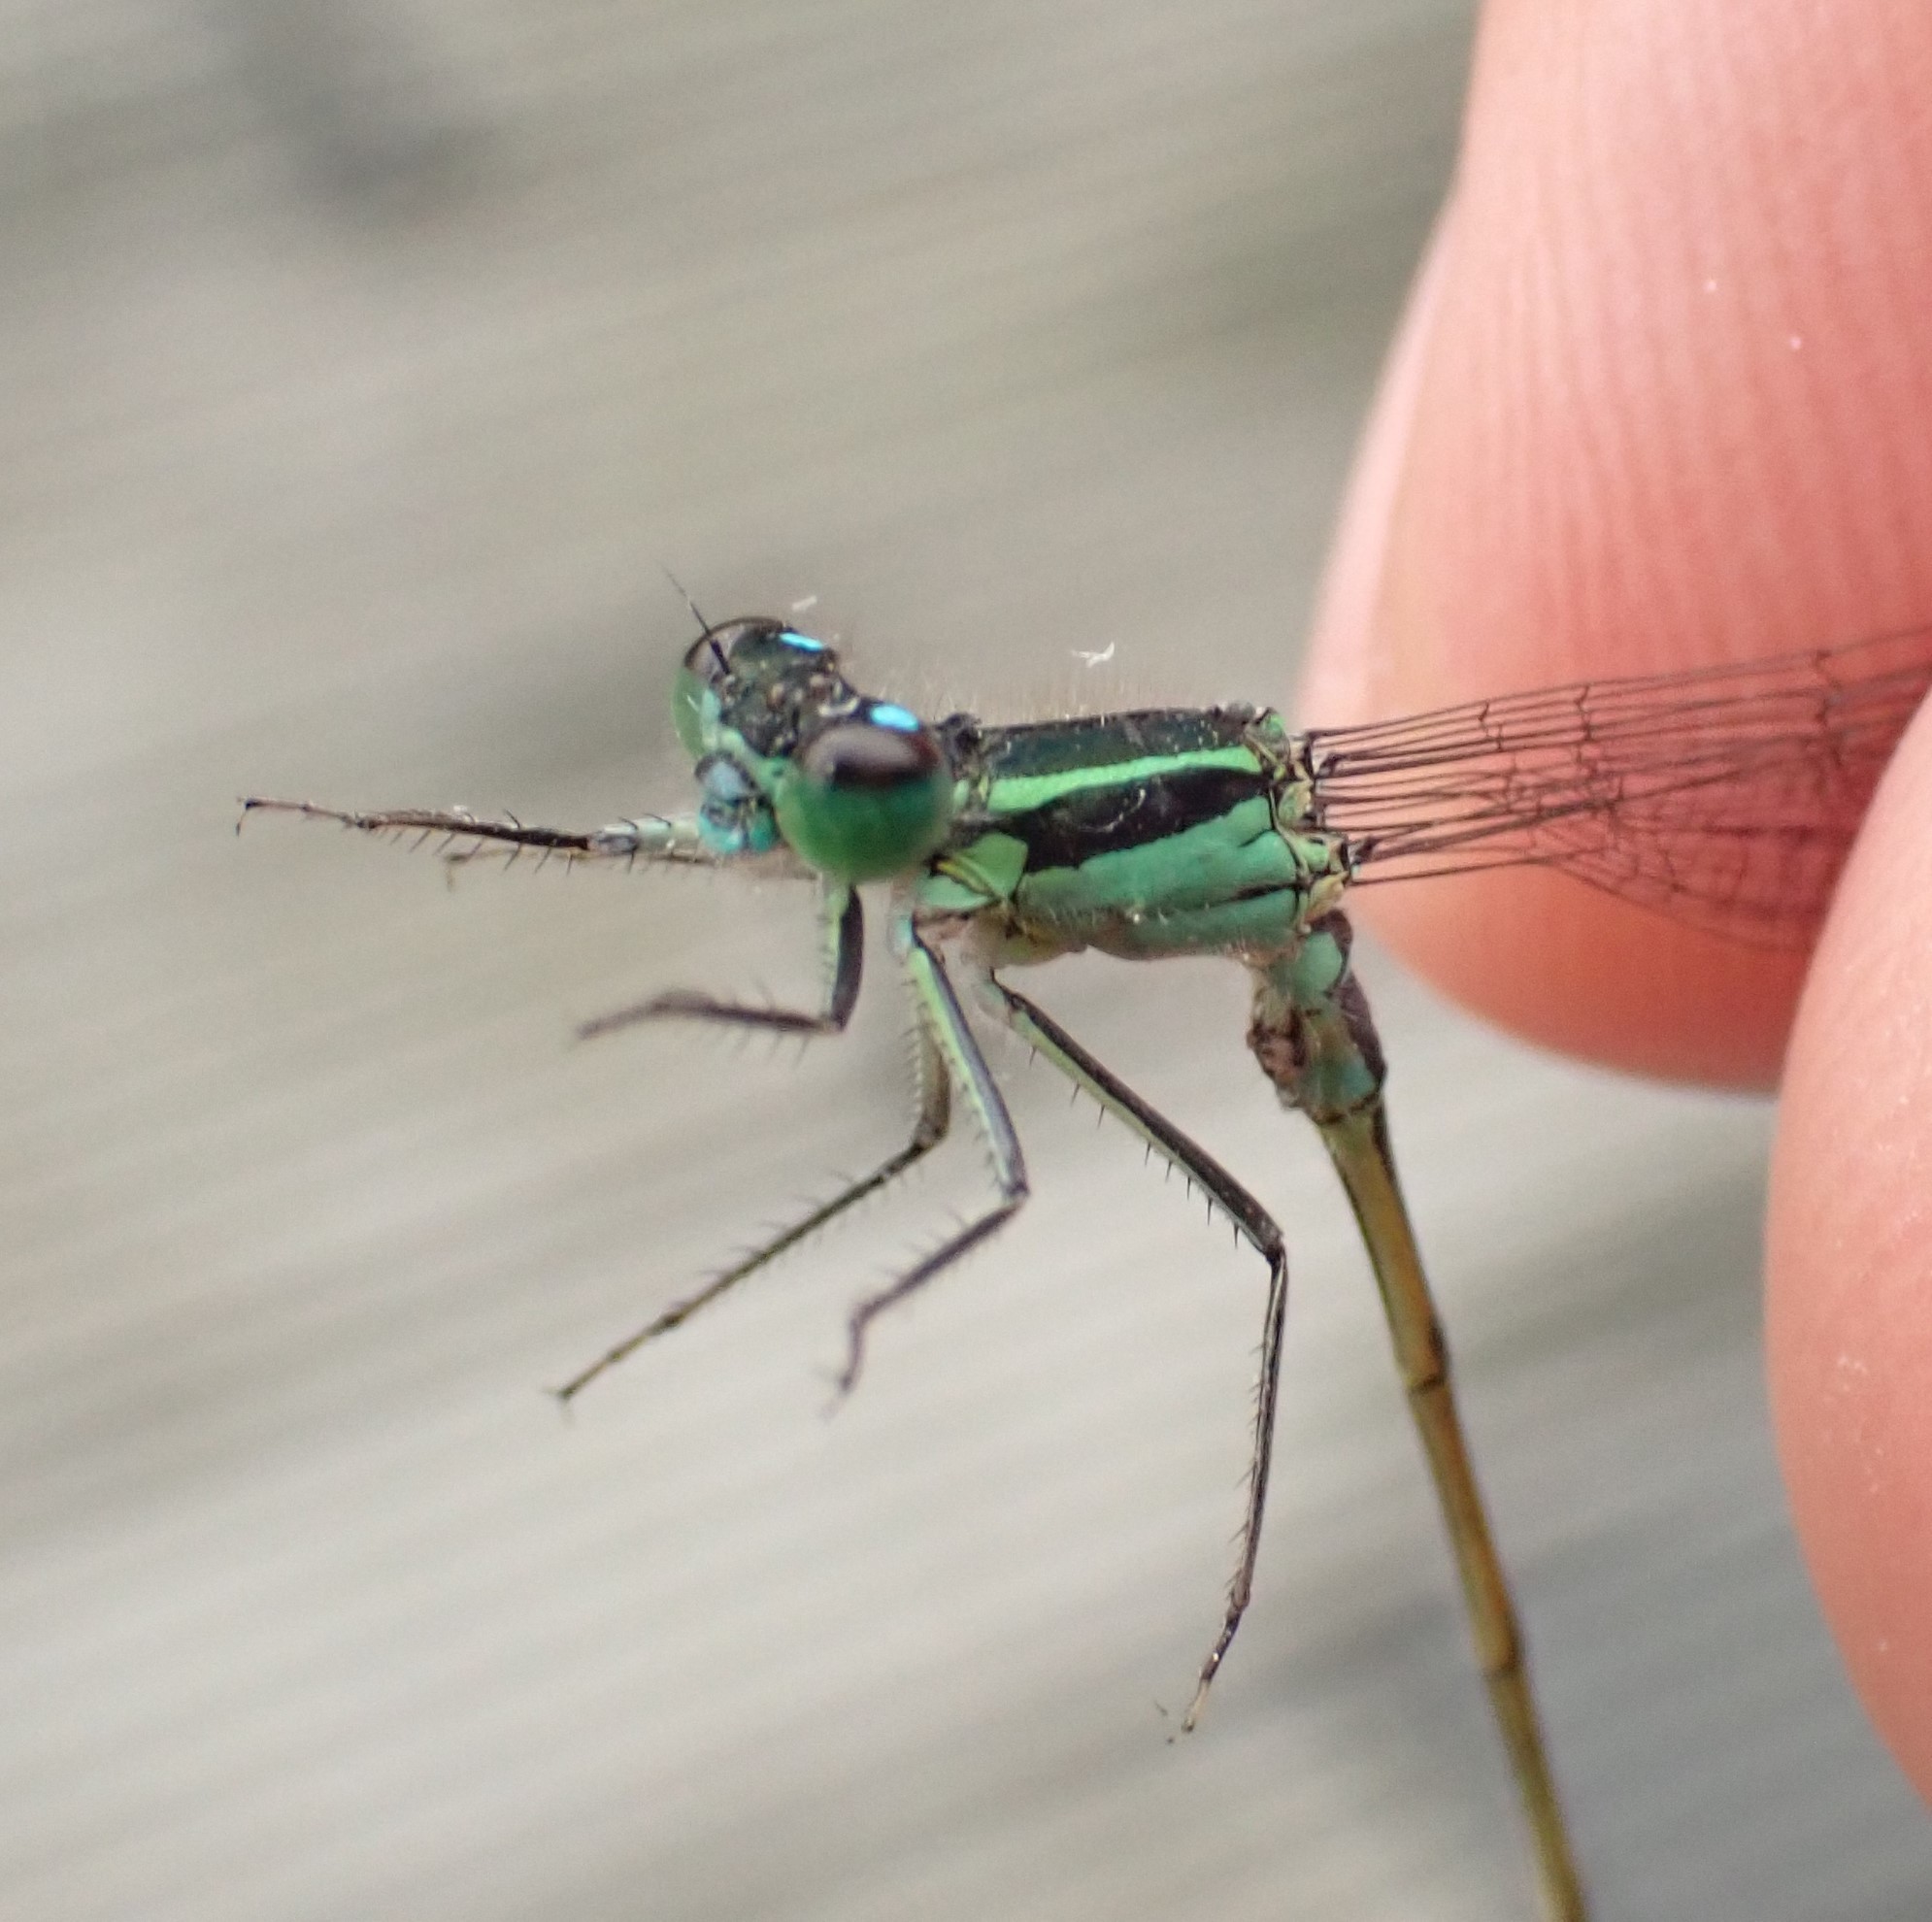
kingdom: Animalia
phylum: Arthropoda
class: Insecta
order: Odonata
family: Coenagrionidae
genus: Ischnura
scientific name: Ischnura elegans
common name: Blue-tailed damselfly
